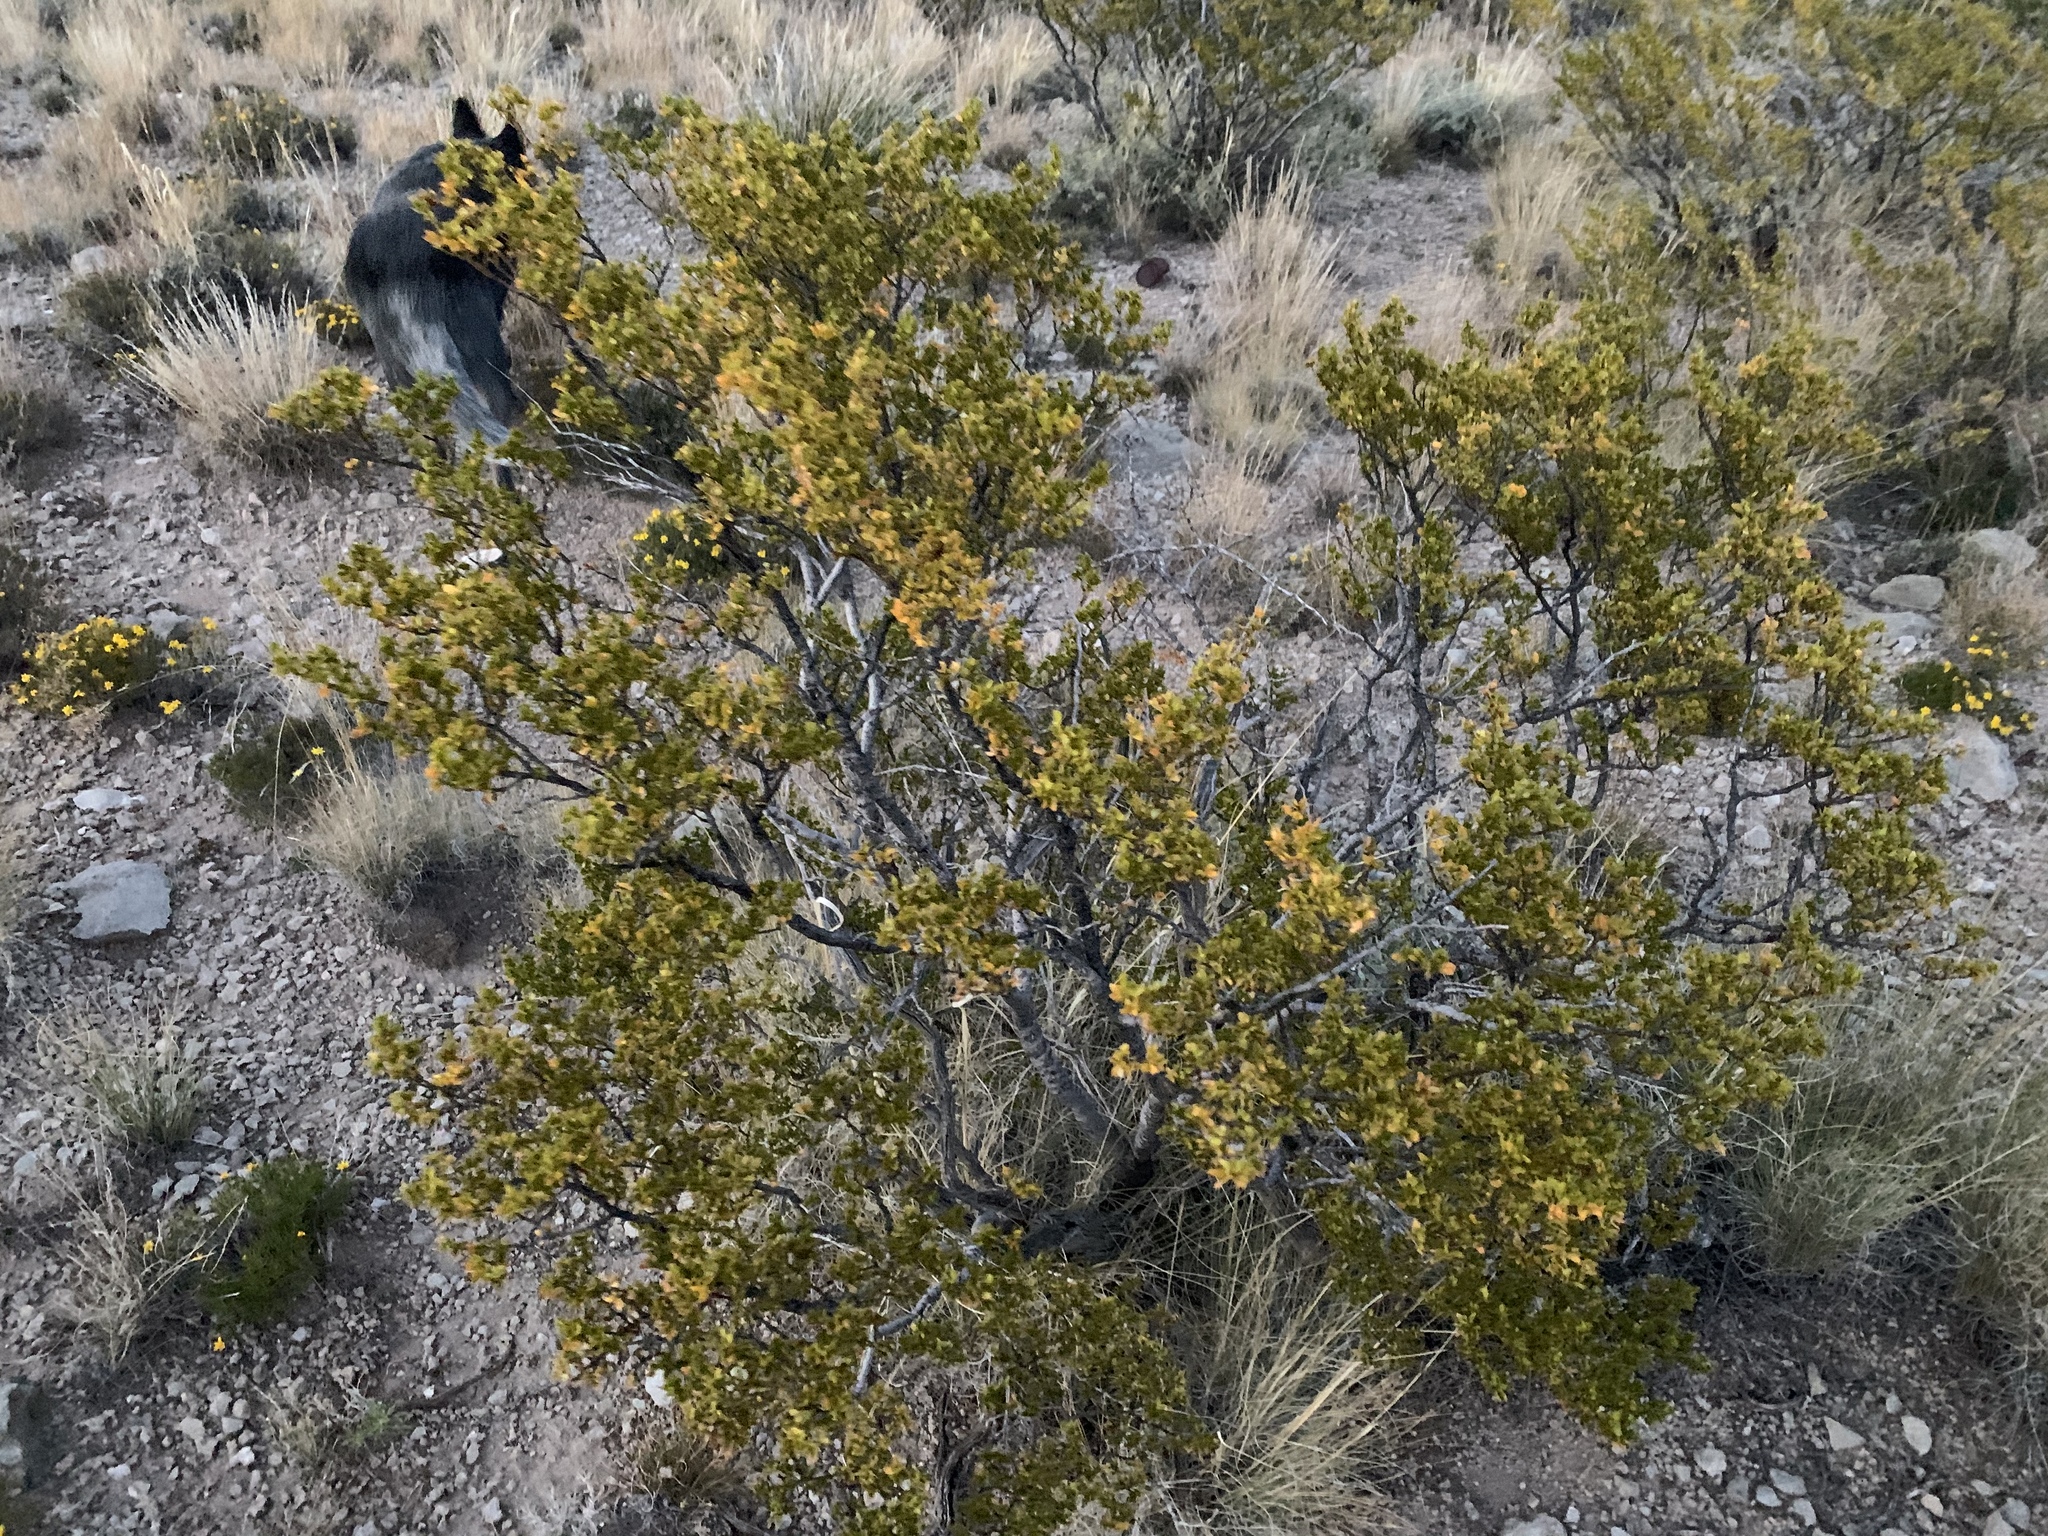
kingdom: Plantae
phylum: Tracheophyta
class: Magnoliopsida
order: Zygophyllales
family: Zygophyllaceae
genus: Larrea
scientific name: Larrea tridentata
